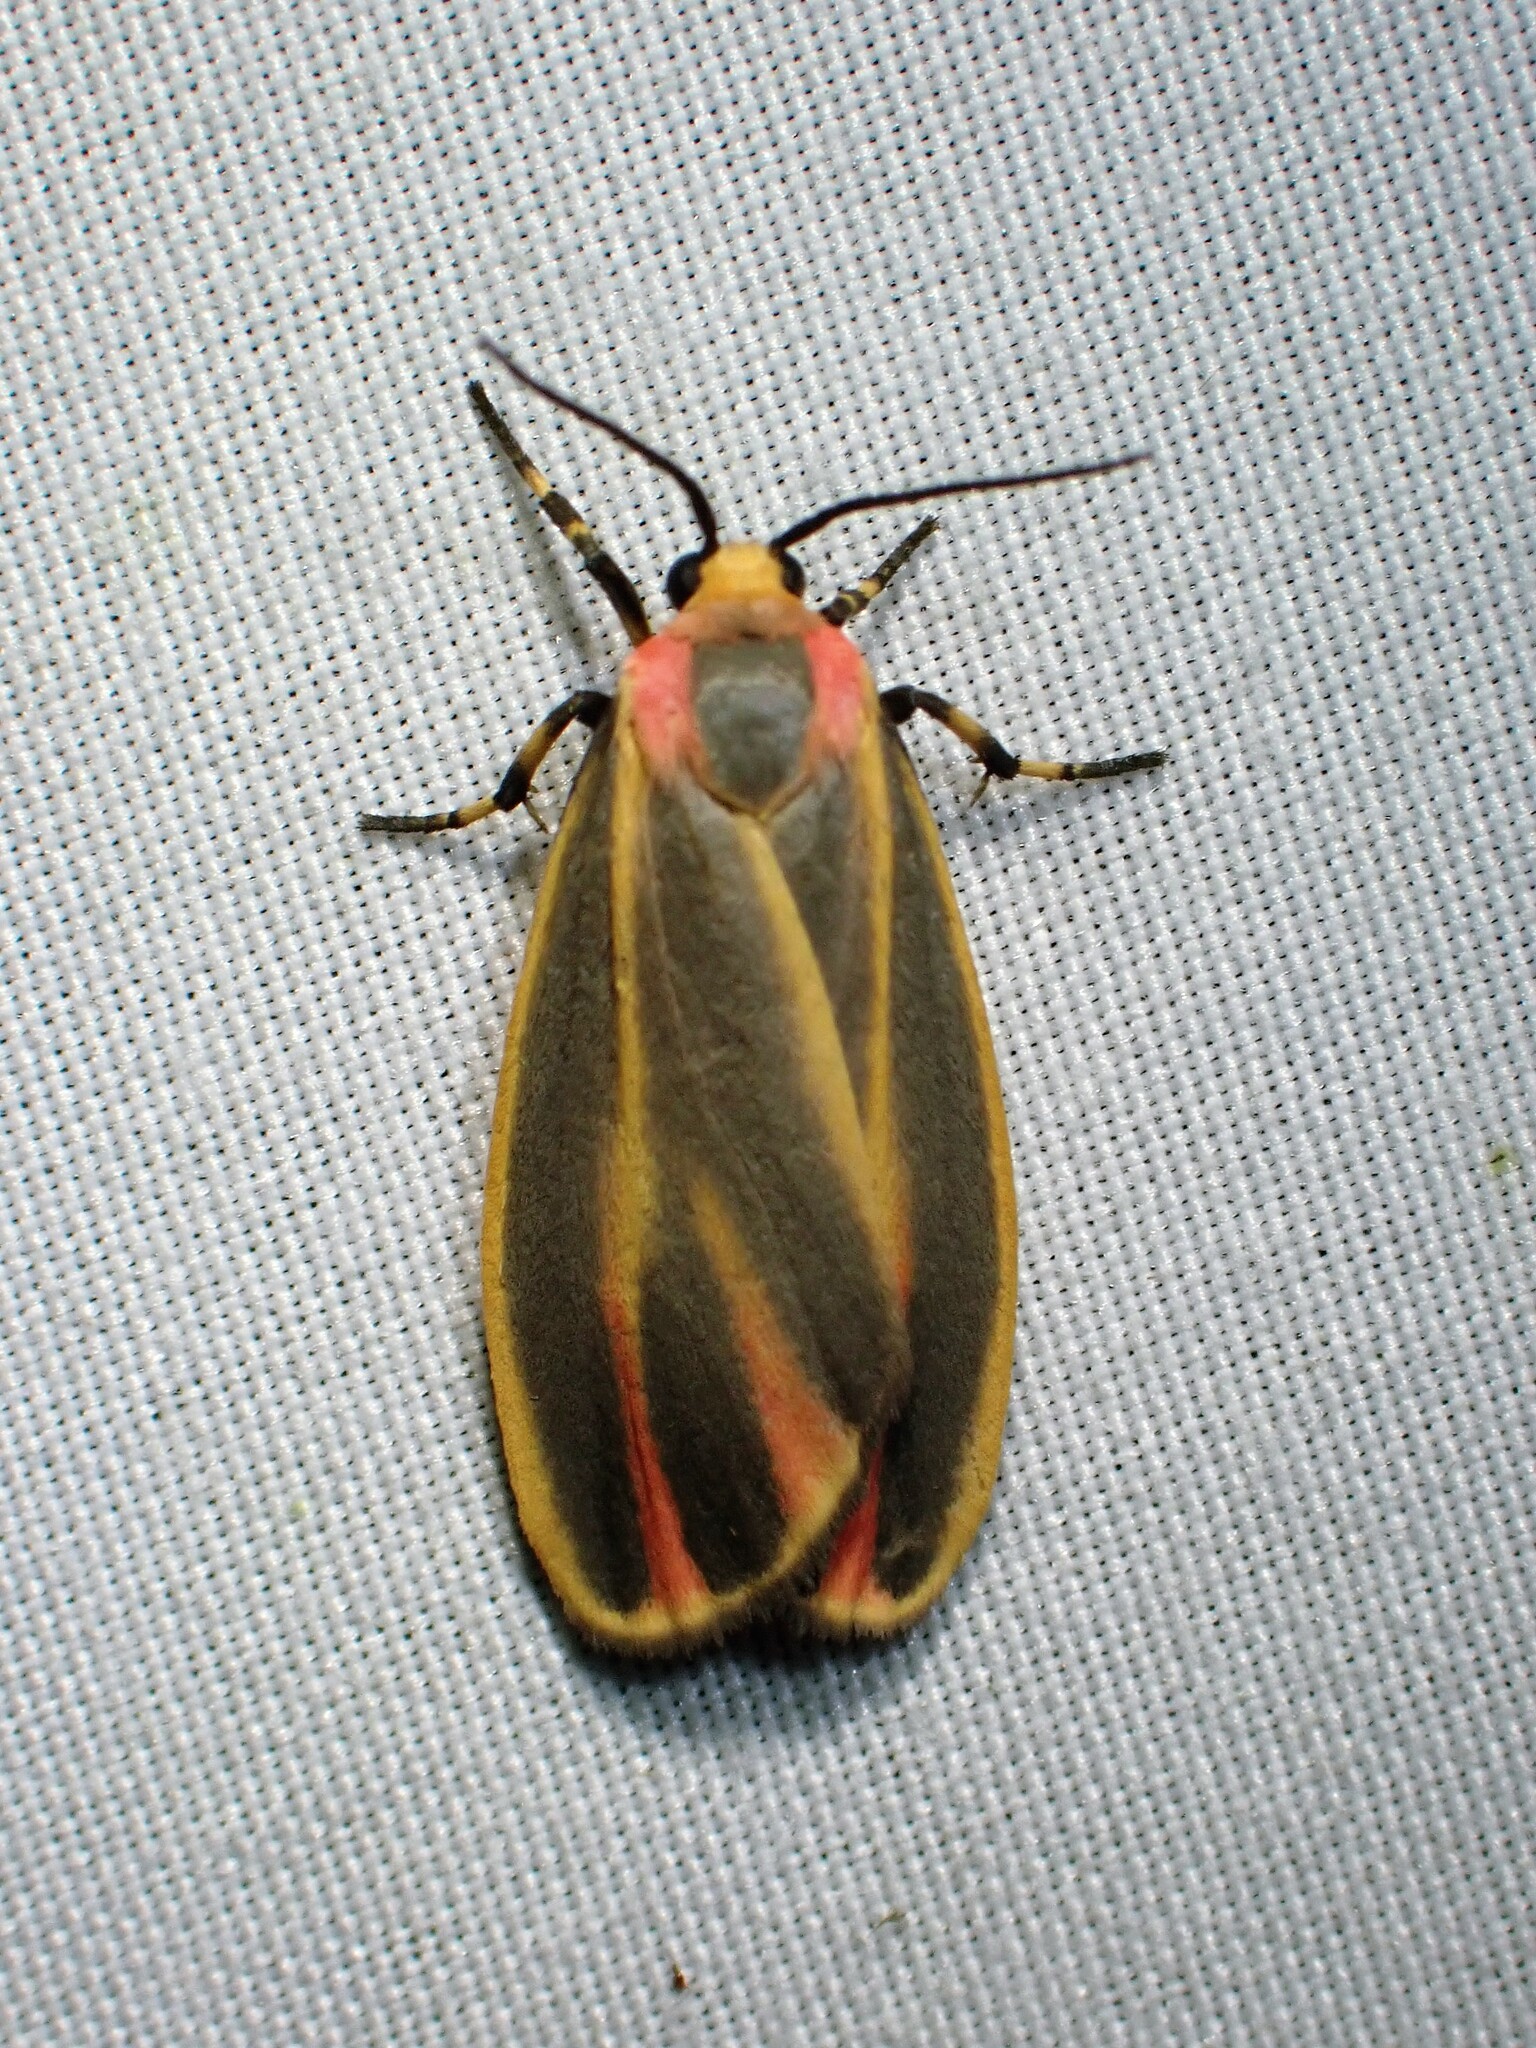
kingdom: Animalia
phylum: Arthropoda
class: Insecta
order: Lepidoptera
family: Erebidae
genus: Hypoprepia
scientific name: Hypoprepia fucosa
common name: Painted lichen moth
